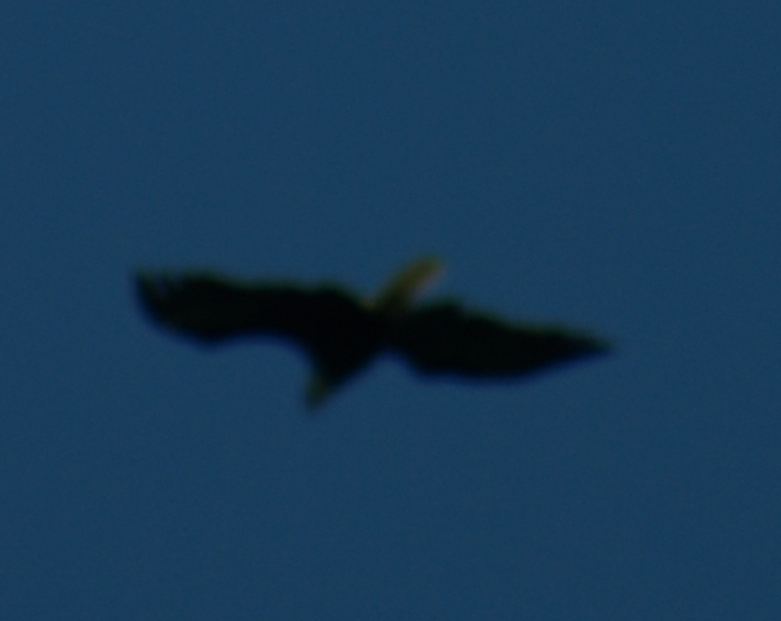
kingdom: Animalia
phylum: Chordata
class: Aves
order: Accipitriformes
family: Accipitridae
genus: Haliaeetus
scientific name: Haliaeetus leucocephalus
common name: Bald eagle
